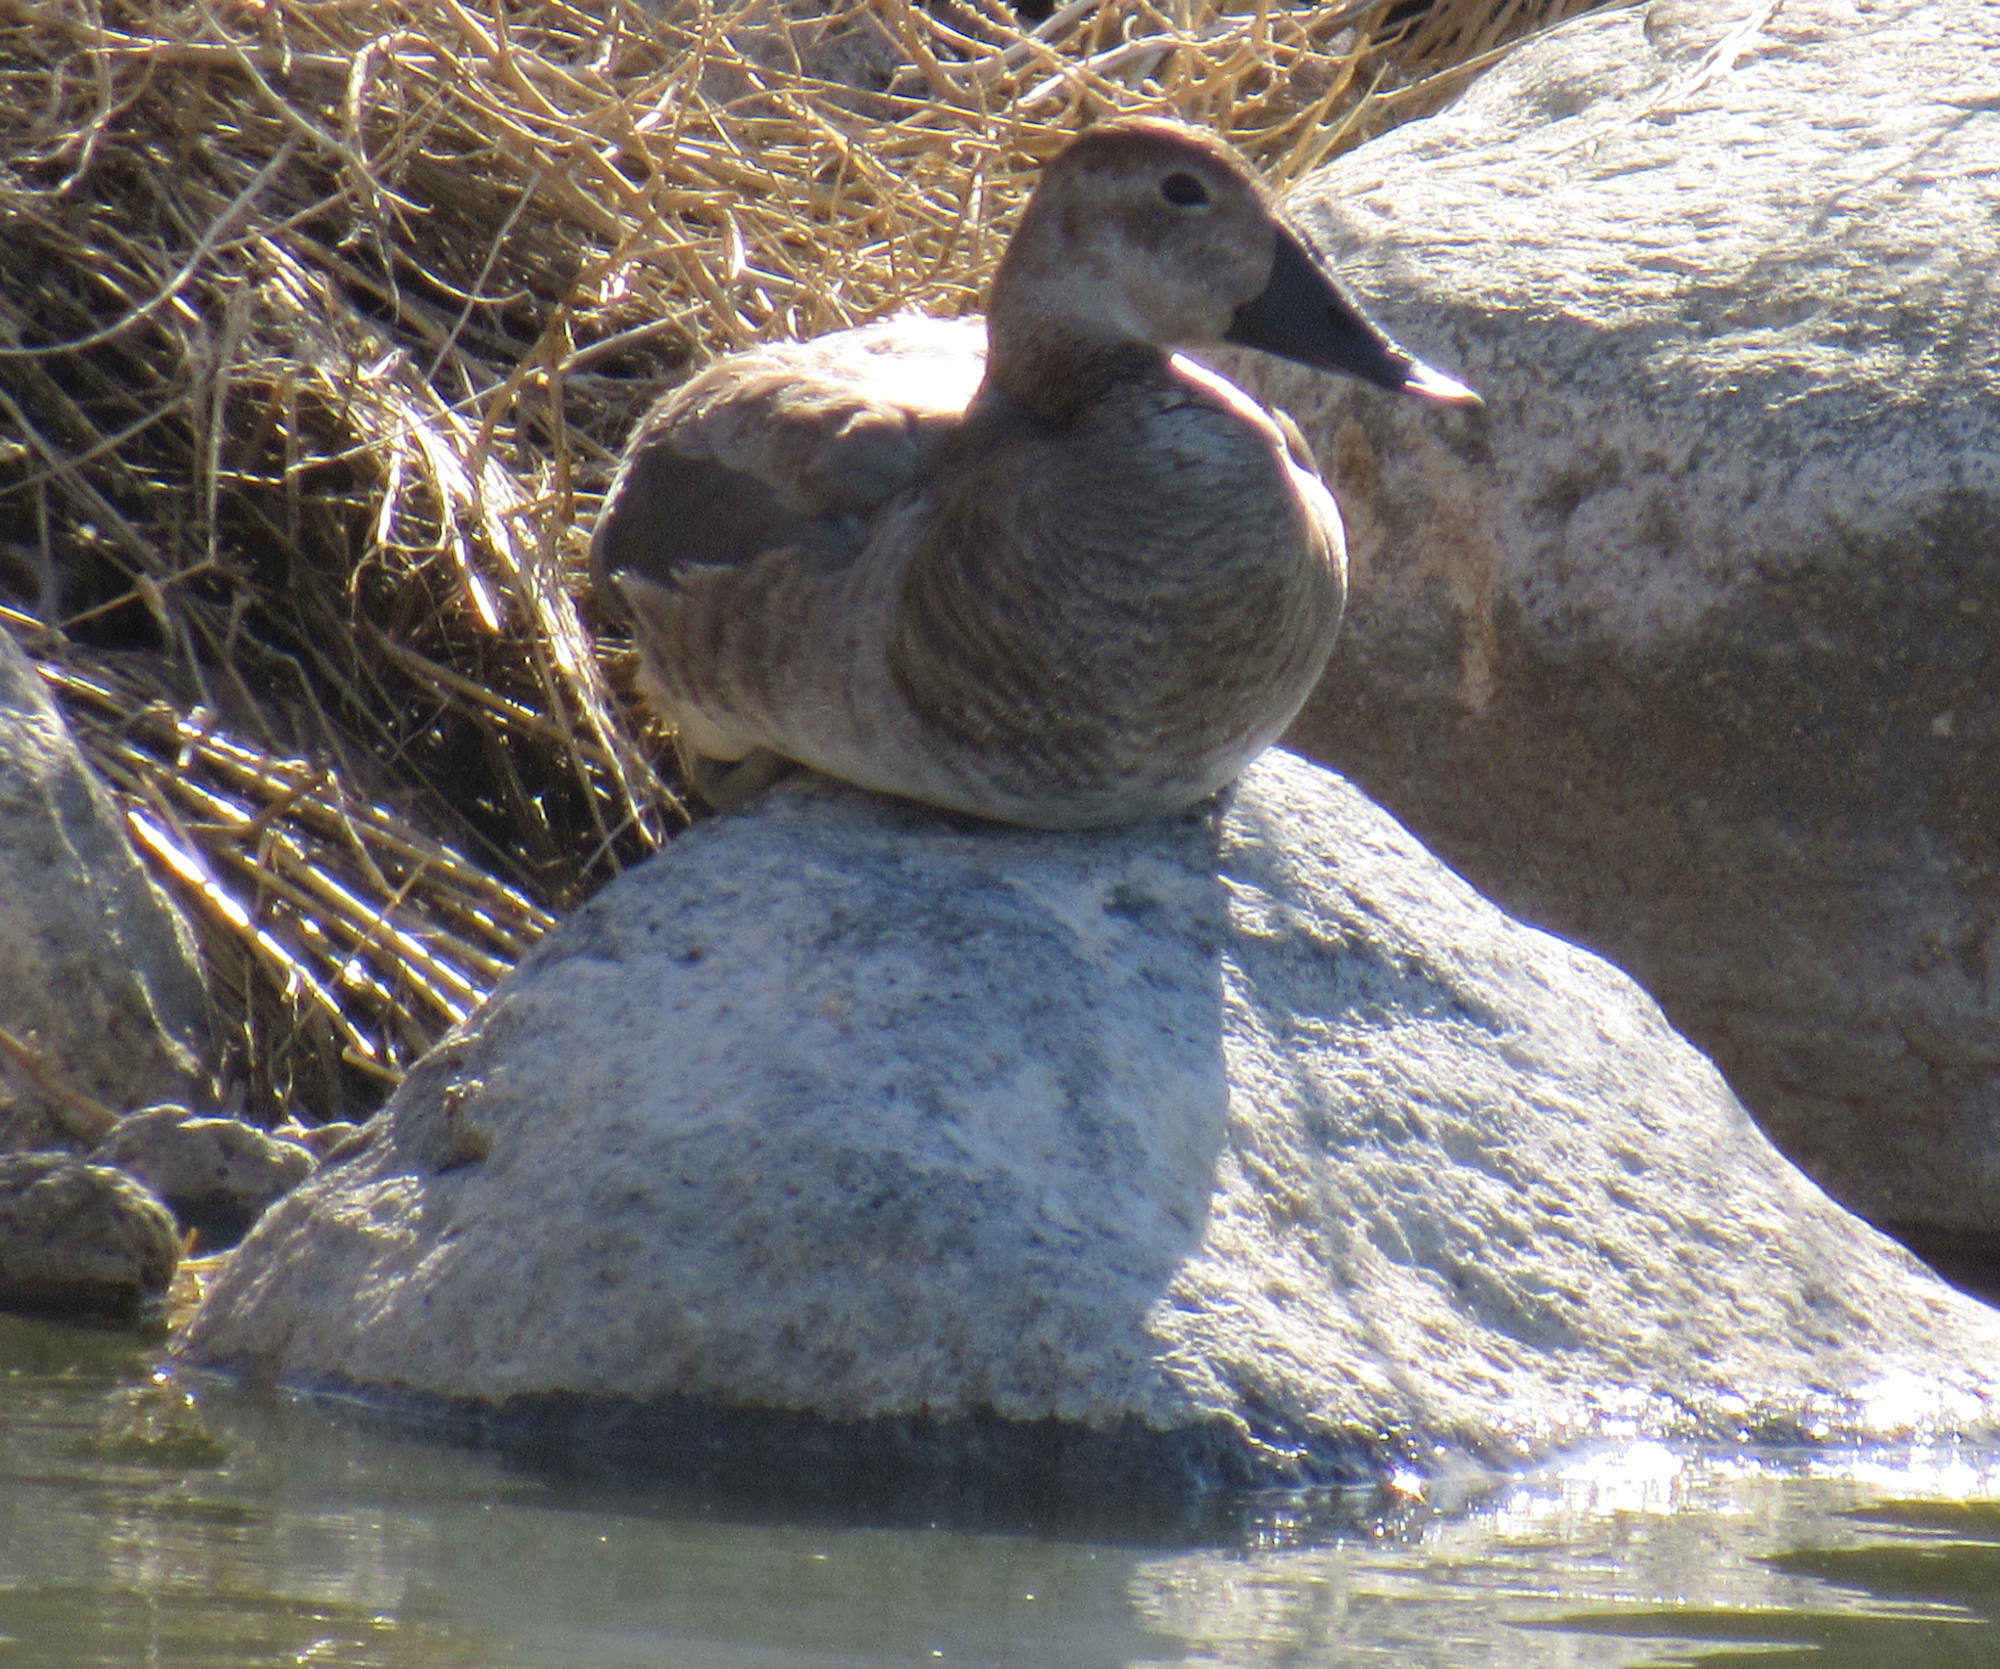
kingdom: Animalia
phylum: Chordata
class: Aves
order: Anseriformes
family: Anatidae
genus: Aythya
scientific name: Aythya valisineria
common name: Canvasback
